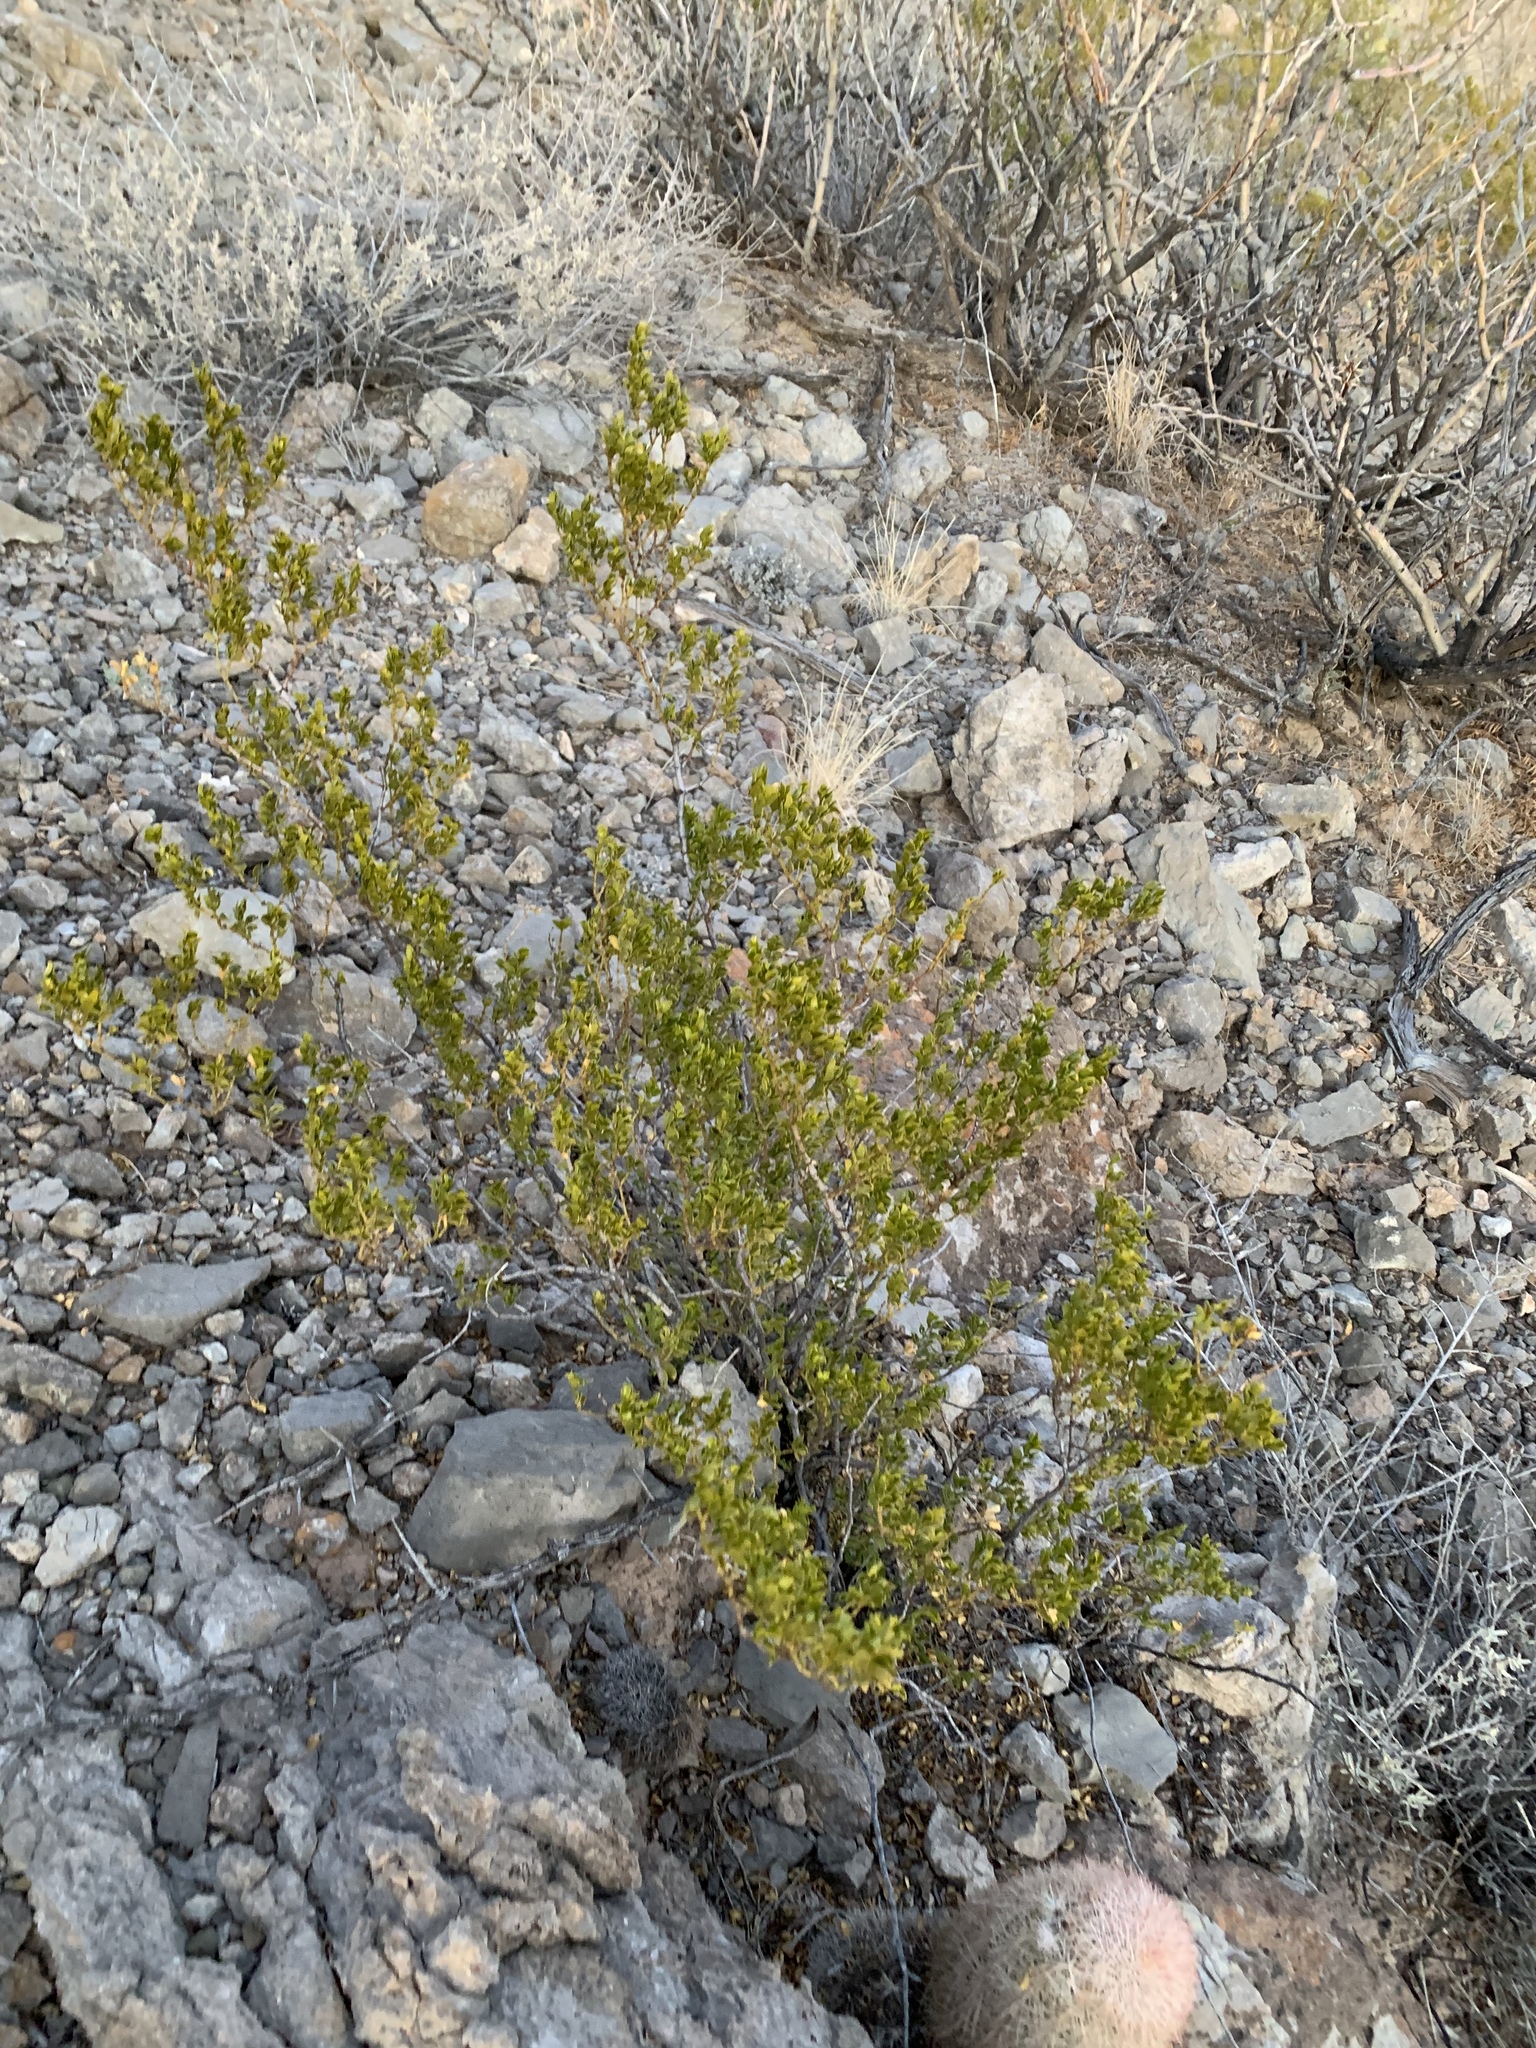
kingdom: Plantae
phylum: Tracheophyta
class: Magnoliopsida
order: Zygophyllales
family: Zygophyllaceae
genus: Larrea
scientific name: Larrea tridentata
